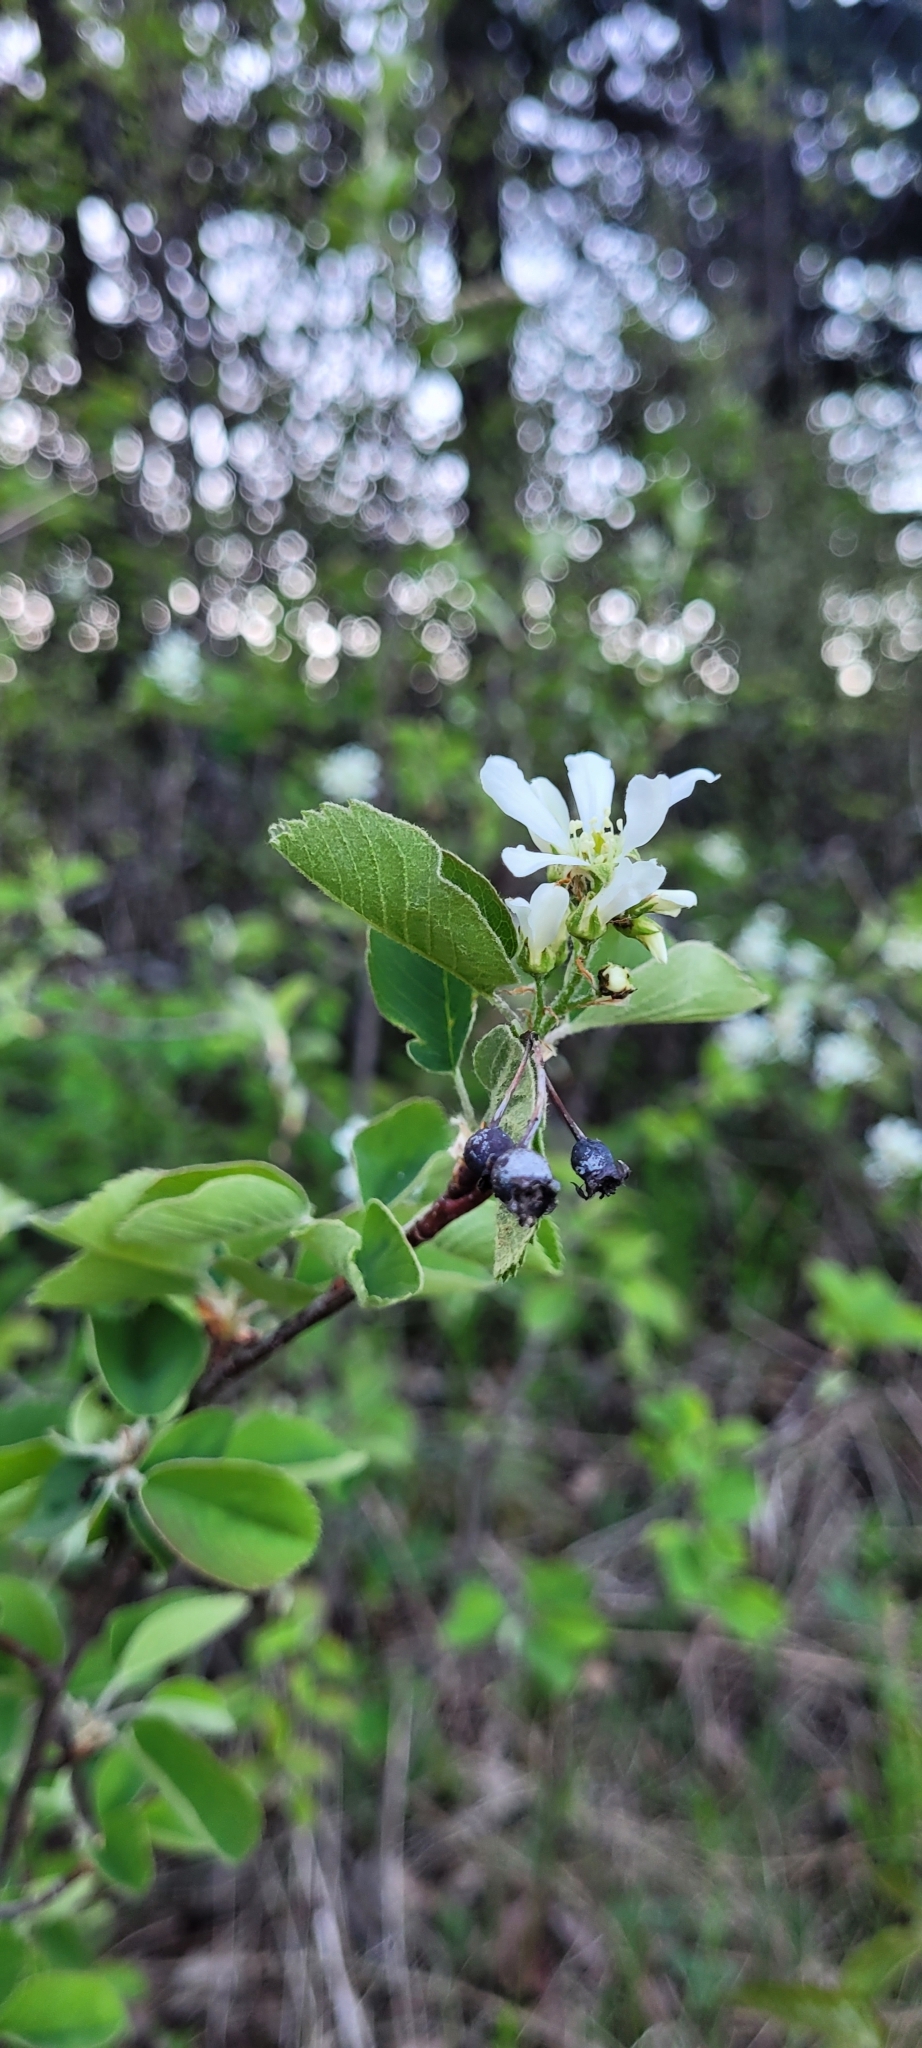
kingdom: Plantae
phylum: Tracheophyta
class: Magnoliopsida
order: Rosales
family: Rosaceae
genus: Amelanchier
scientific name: Amelanchier alnifolia
